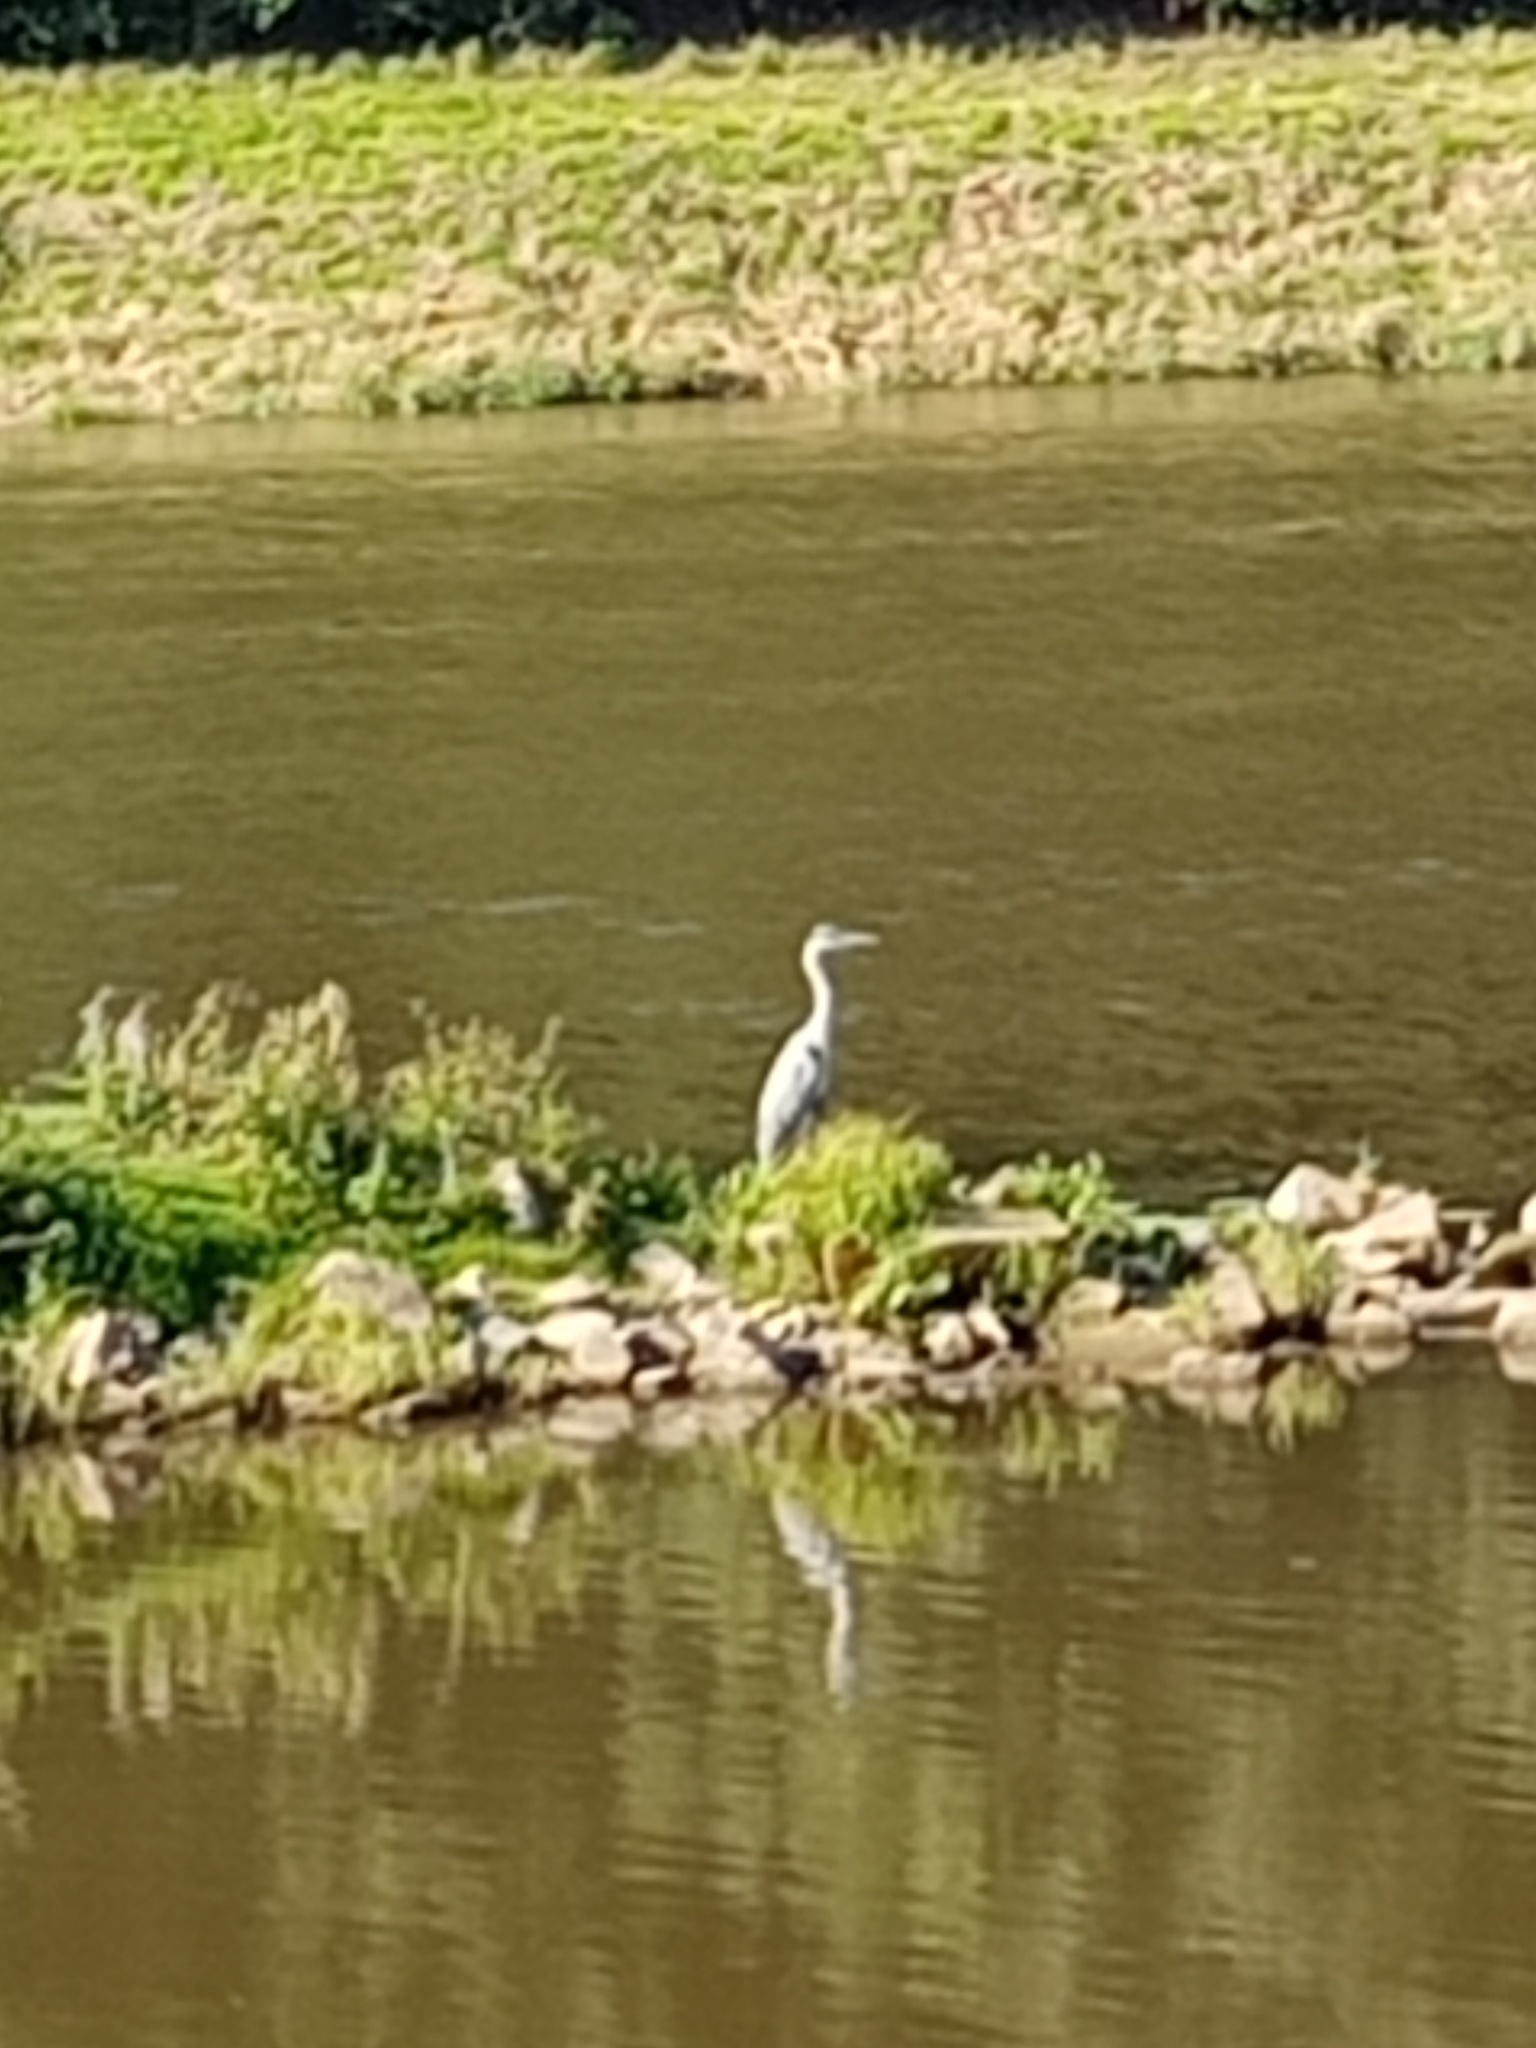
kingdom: Animalia
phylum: Chordata
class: Aves
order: Pelecaniformes
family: Ardeidae
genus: Ardea
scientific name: Ardea cinerea
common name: Grey heron
